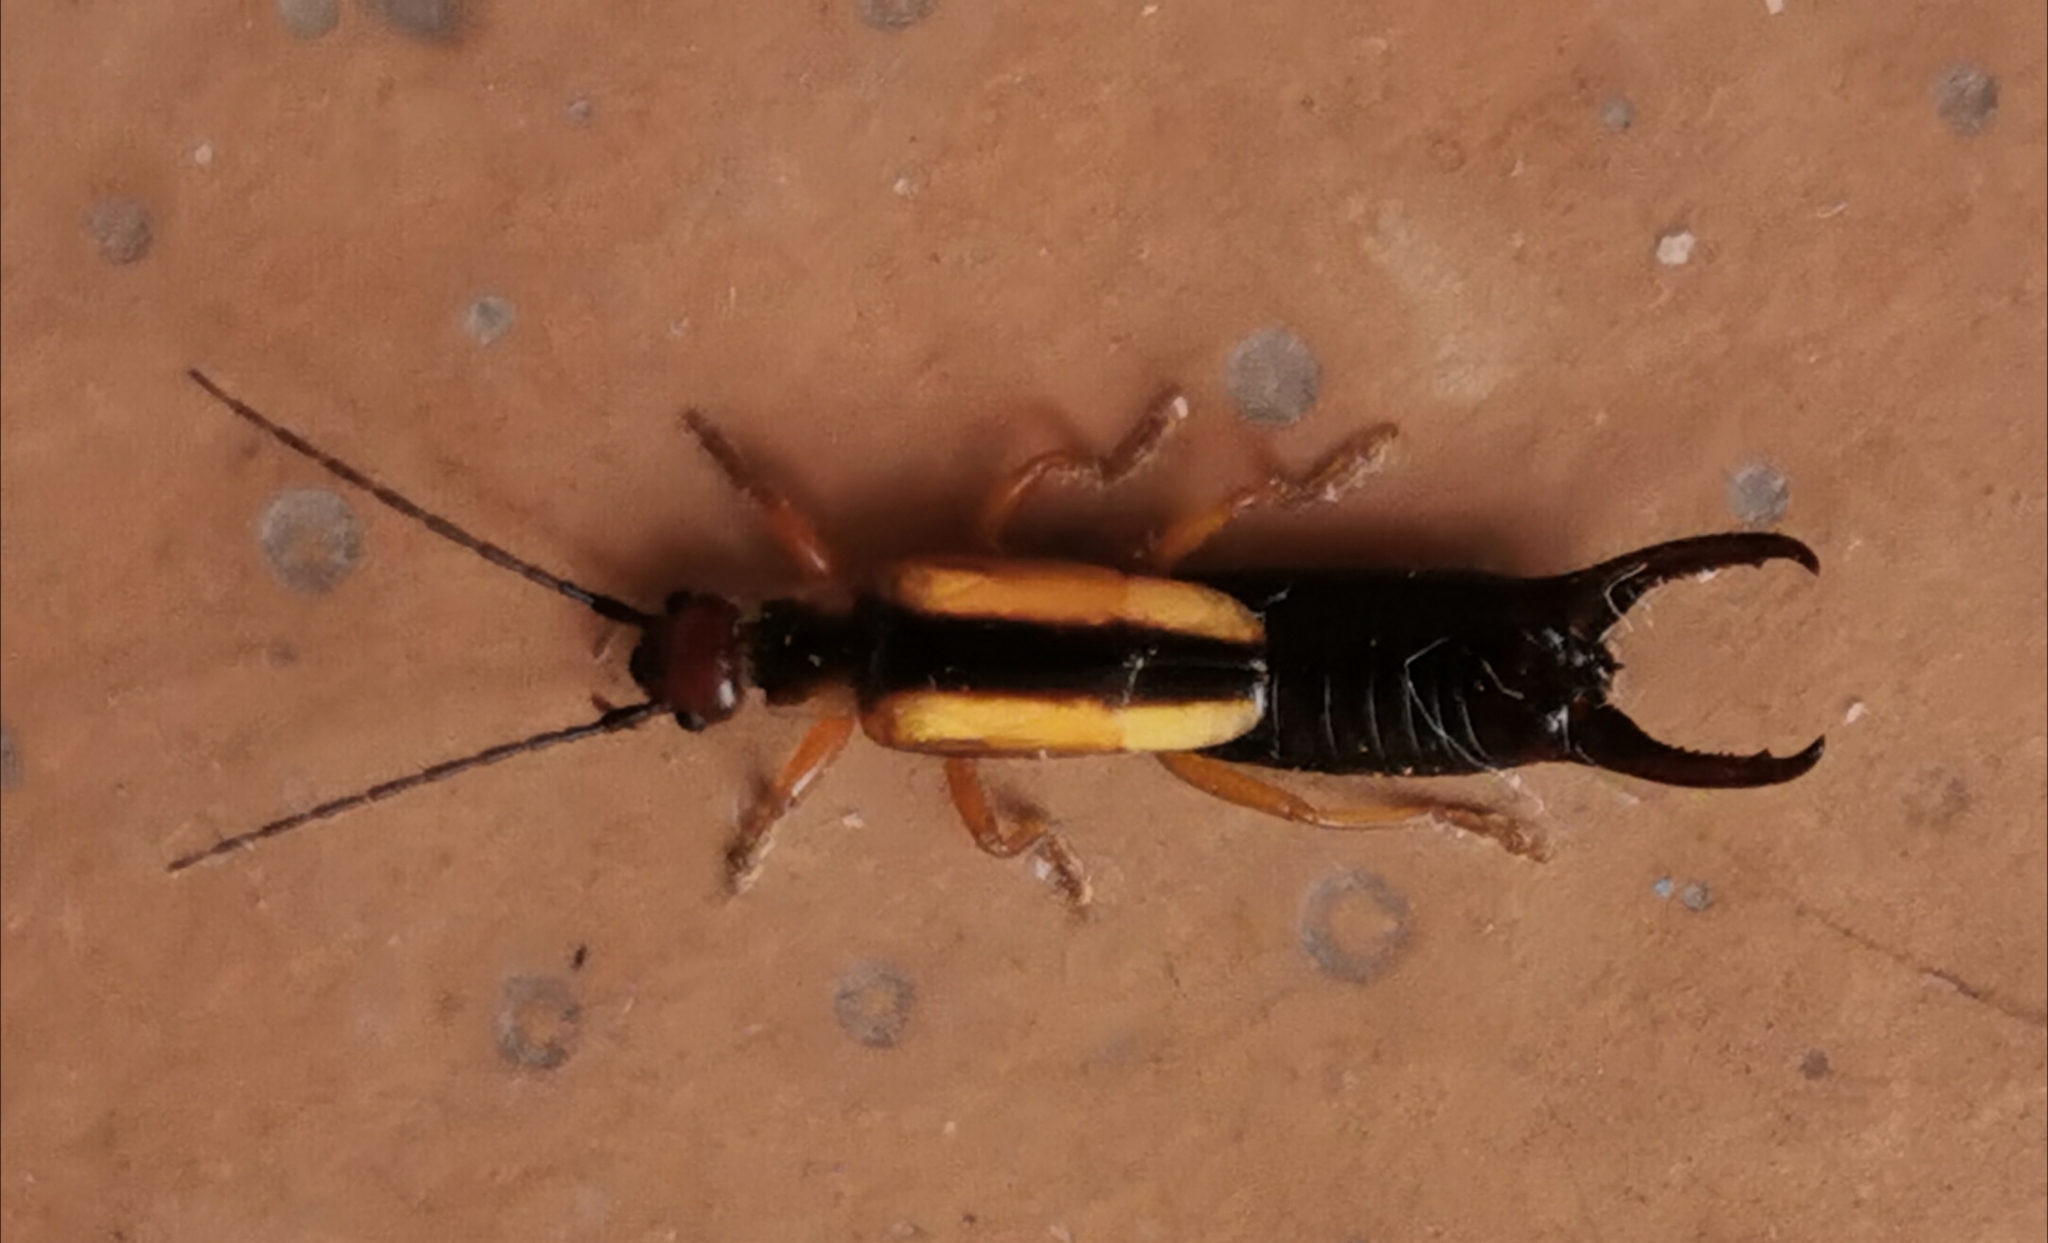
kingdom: Animalia
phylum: Arthropoda
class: Insecta
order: Dermaptera
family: Forficulidae
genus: Doru
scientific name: Doru taeniatum
